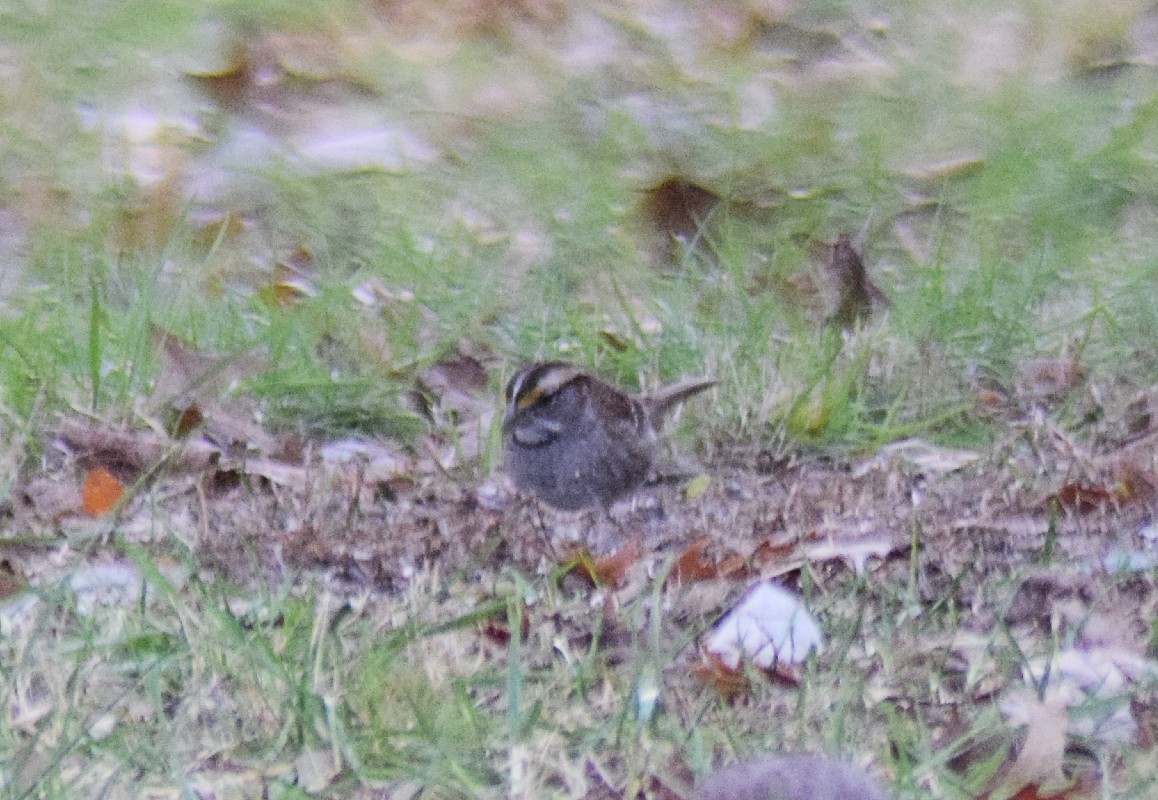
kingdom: Animalia
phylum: Chordata
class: Aves
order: Passeriformes
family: Passerellidae
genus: Zonotrichia
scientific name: Zonotrichia albicollis
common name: White-throated sparrow
